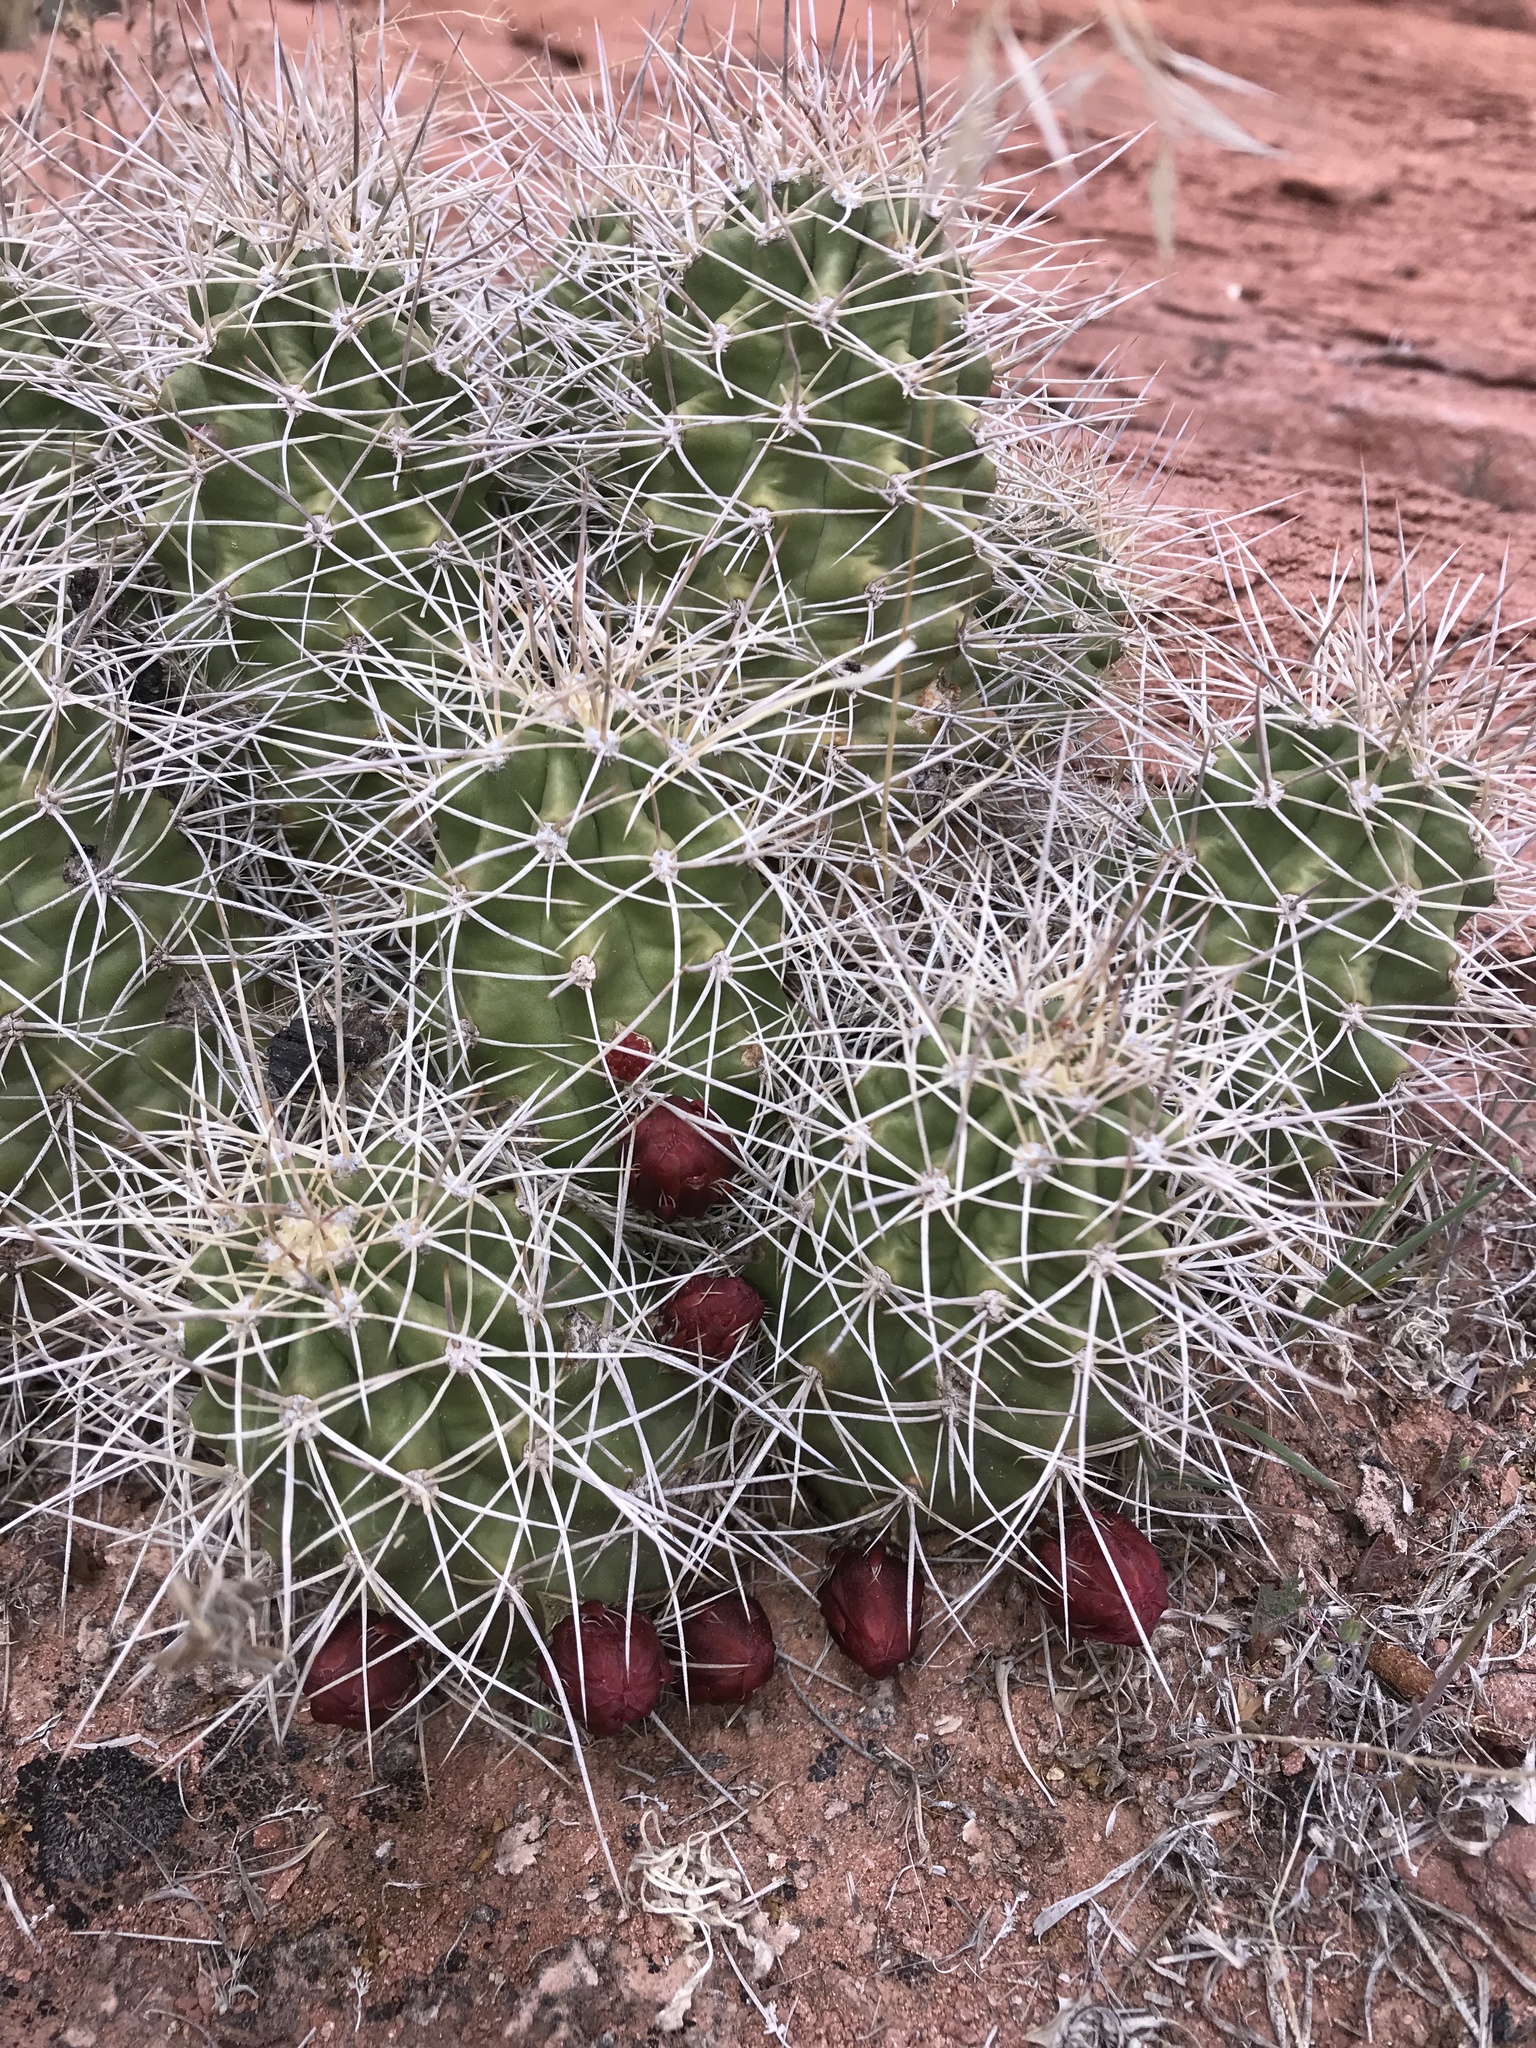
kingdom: Plantae
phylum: Tracheophyta
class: Magnoliopsida
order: Caryophyllales
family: Cactaceae
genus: Echinocereus
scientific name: Echinocereus triglochidiatus
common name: Claretcup hedgehog
